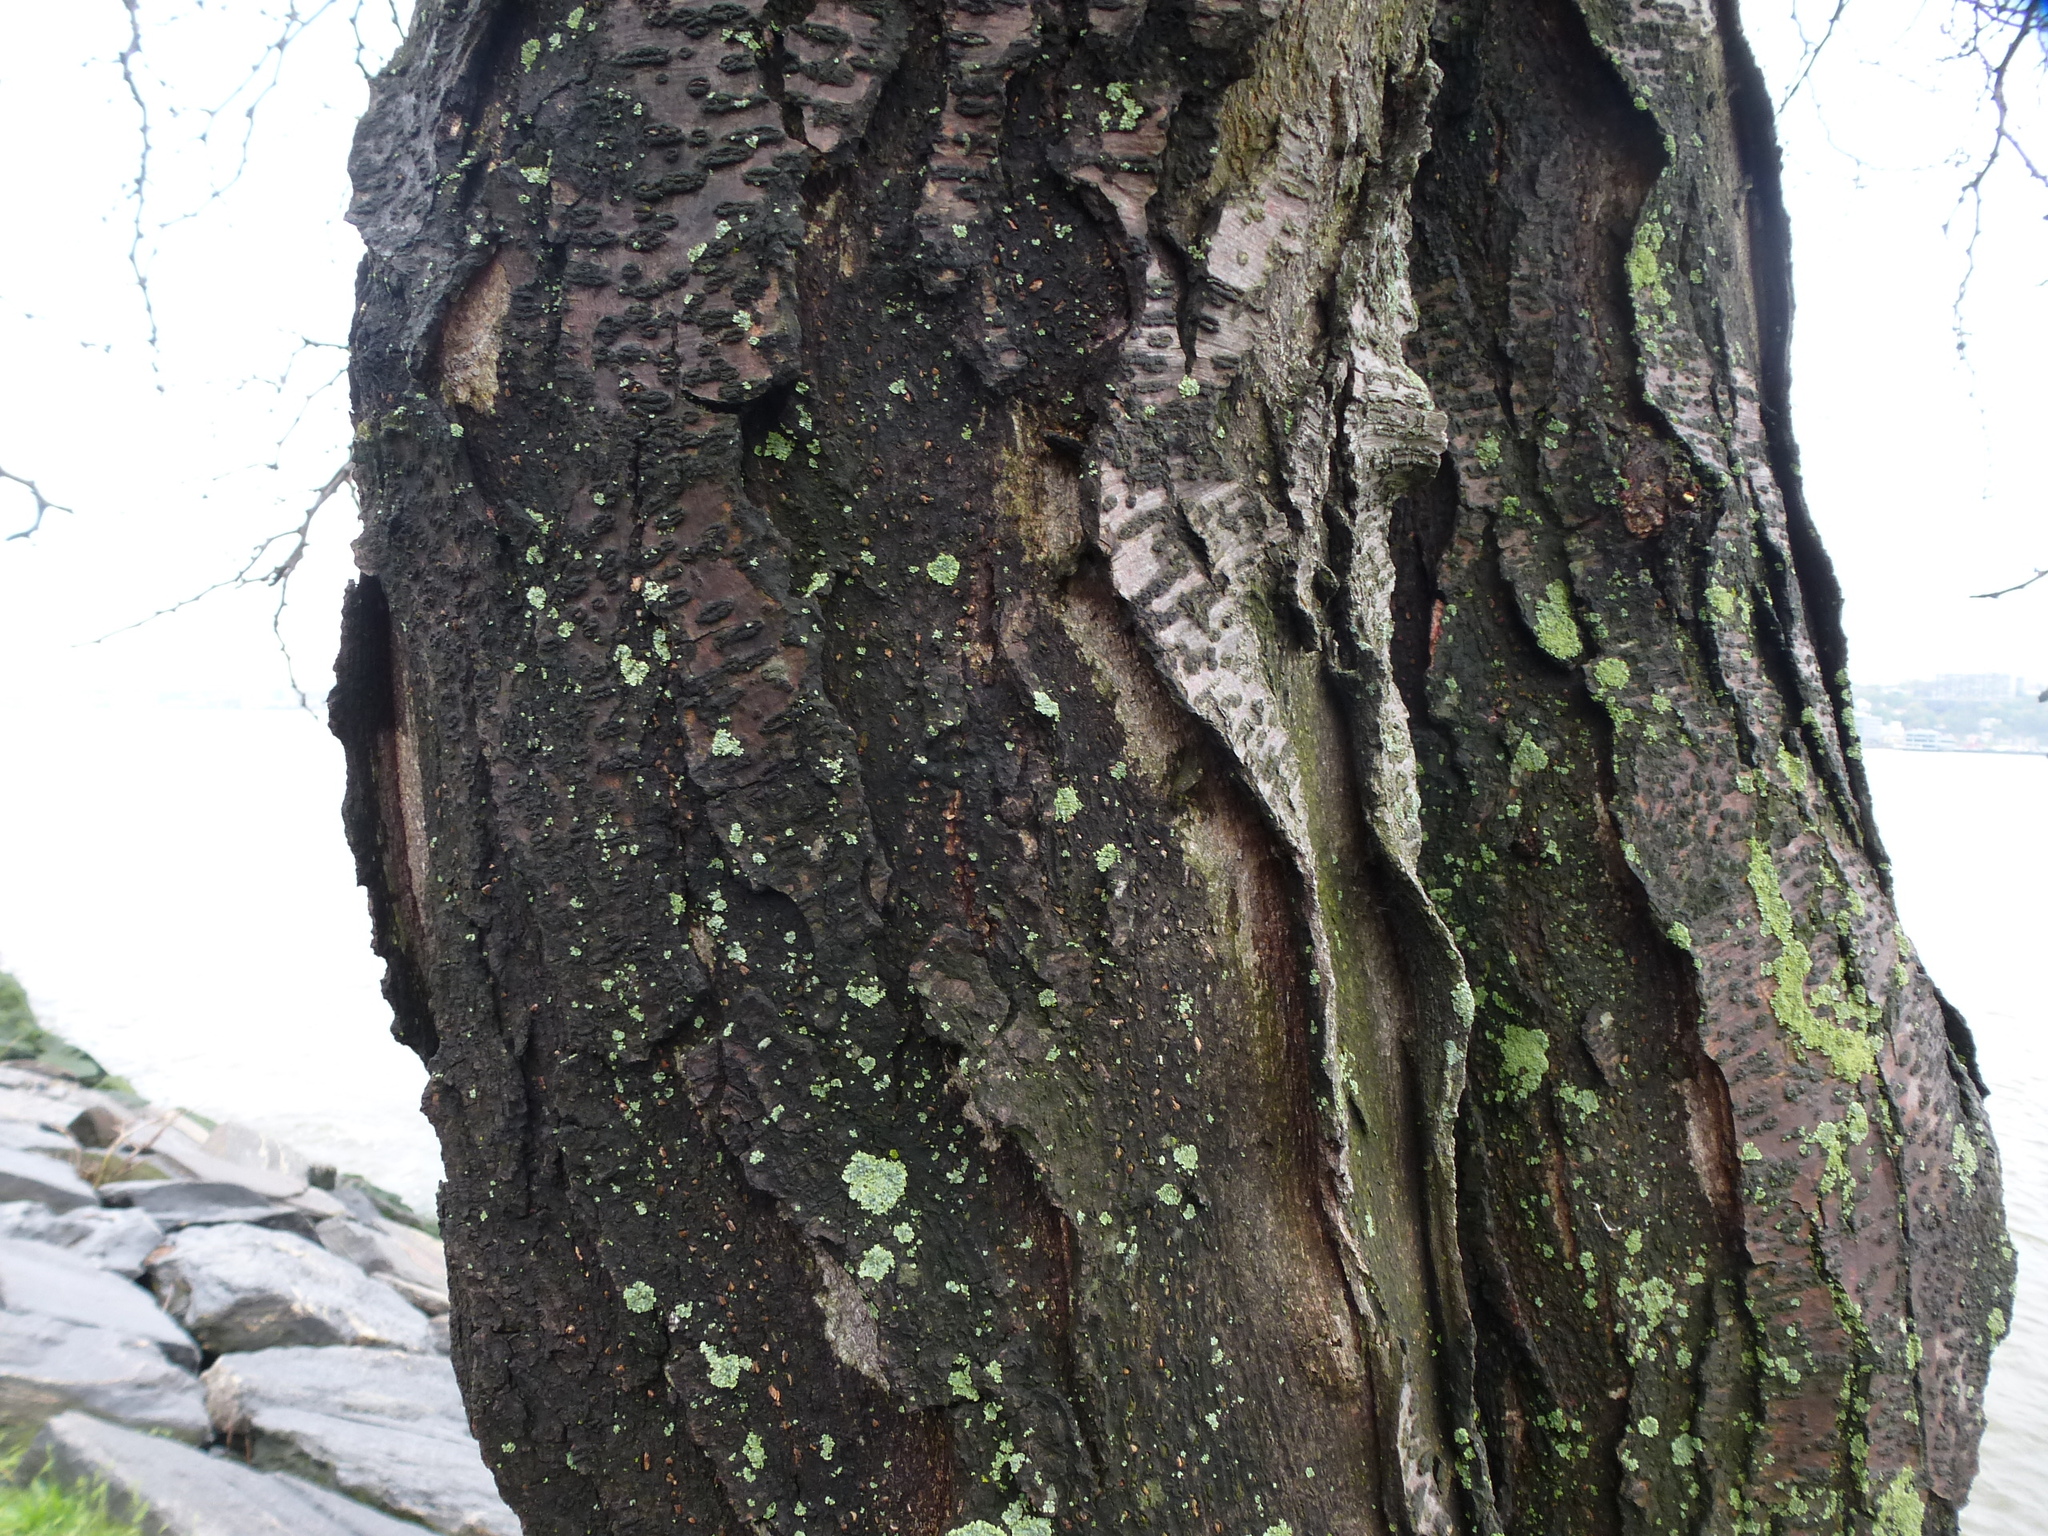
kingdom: Plantae
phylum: Tracheophyta
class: Magnoliopsida
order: Fabales
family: Fabaceae
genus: Gleditsia
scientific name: Gleditsia triacanthos
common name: Common honeylocust
